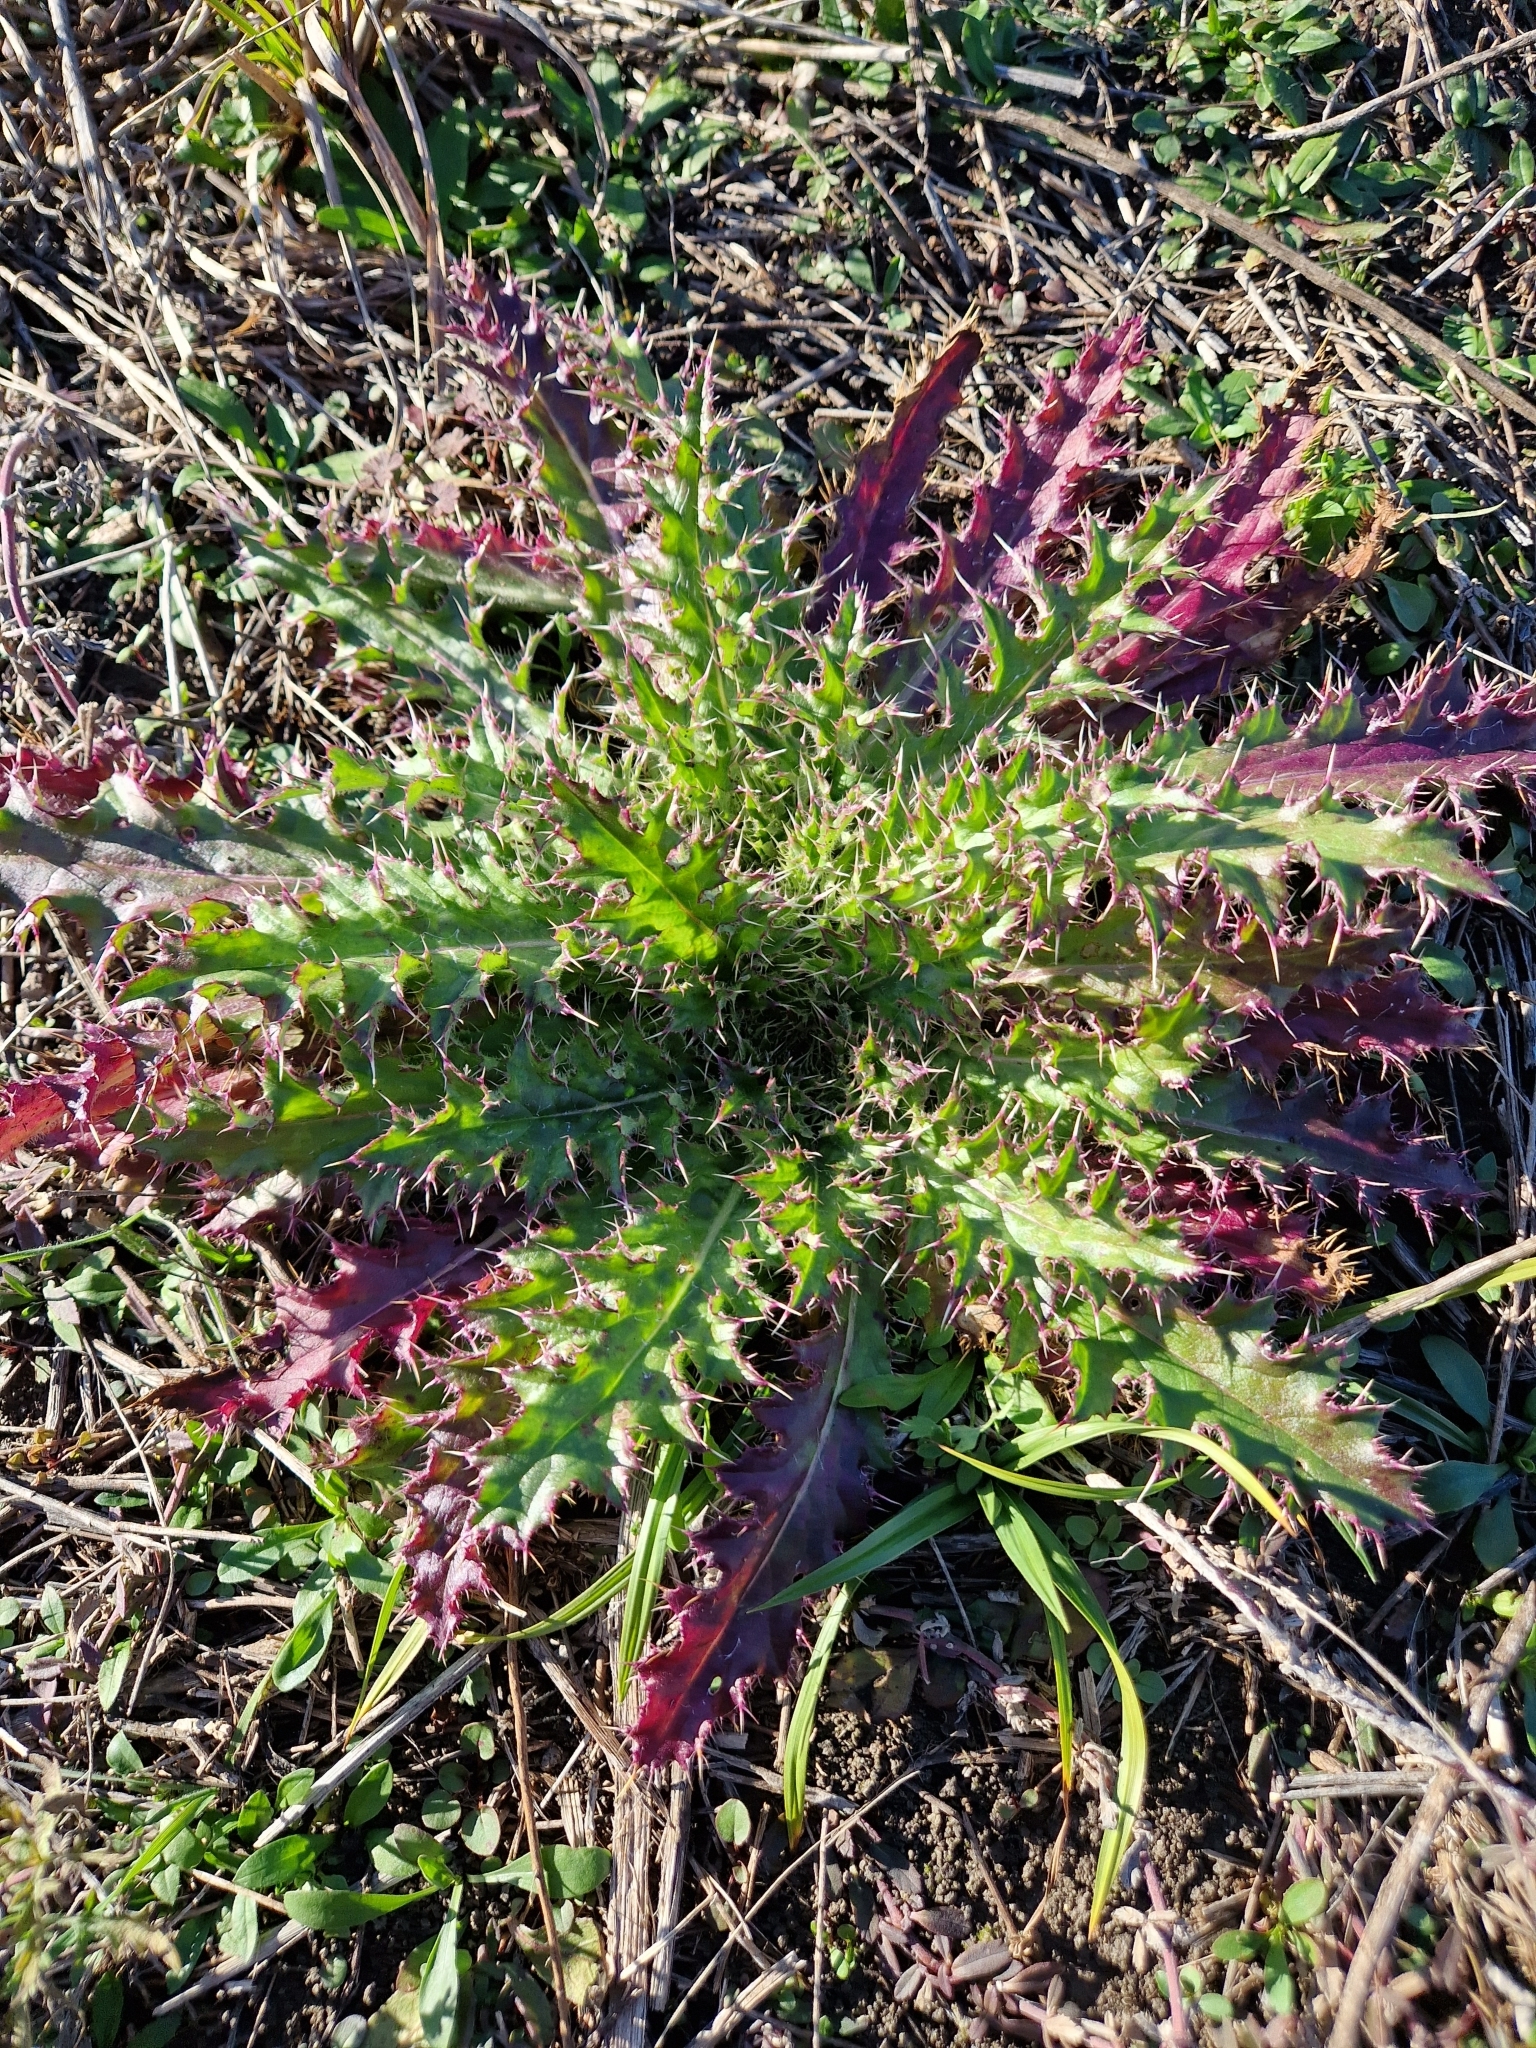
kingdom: Plantae
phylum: Tracheophyta
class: Magnoliopsida
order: Asterales
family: Asteraceae
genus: Cirsium
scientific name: Cirsium horridulum
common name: Bristly thistle
